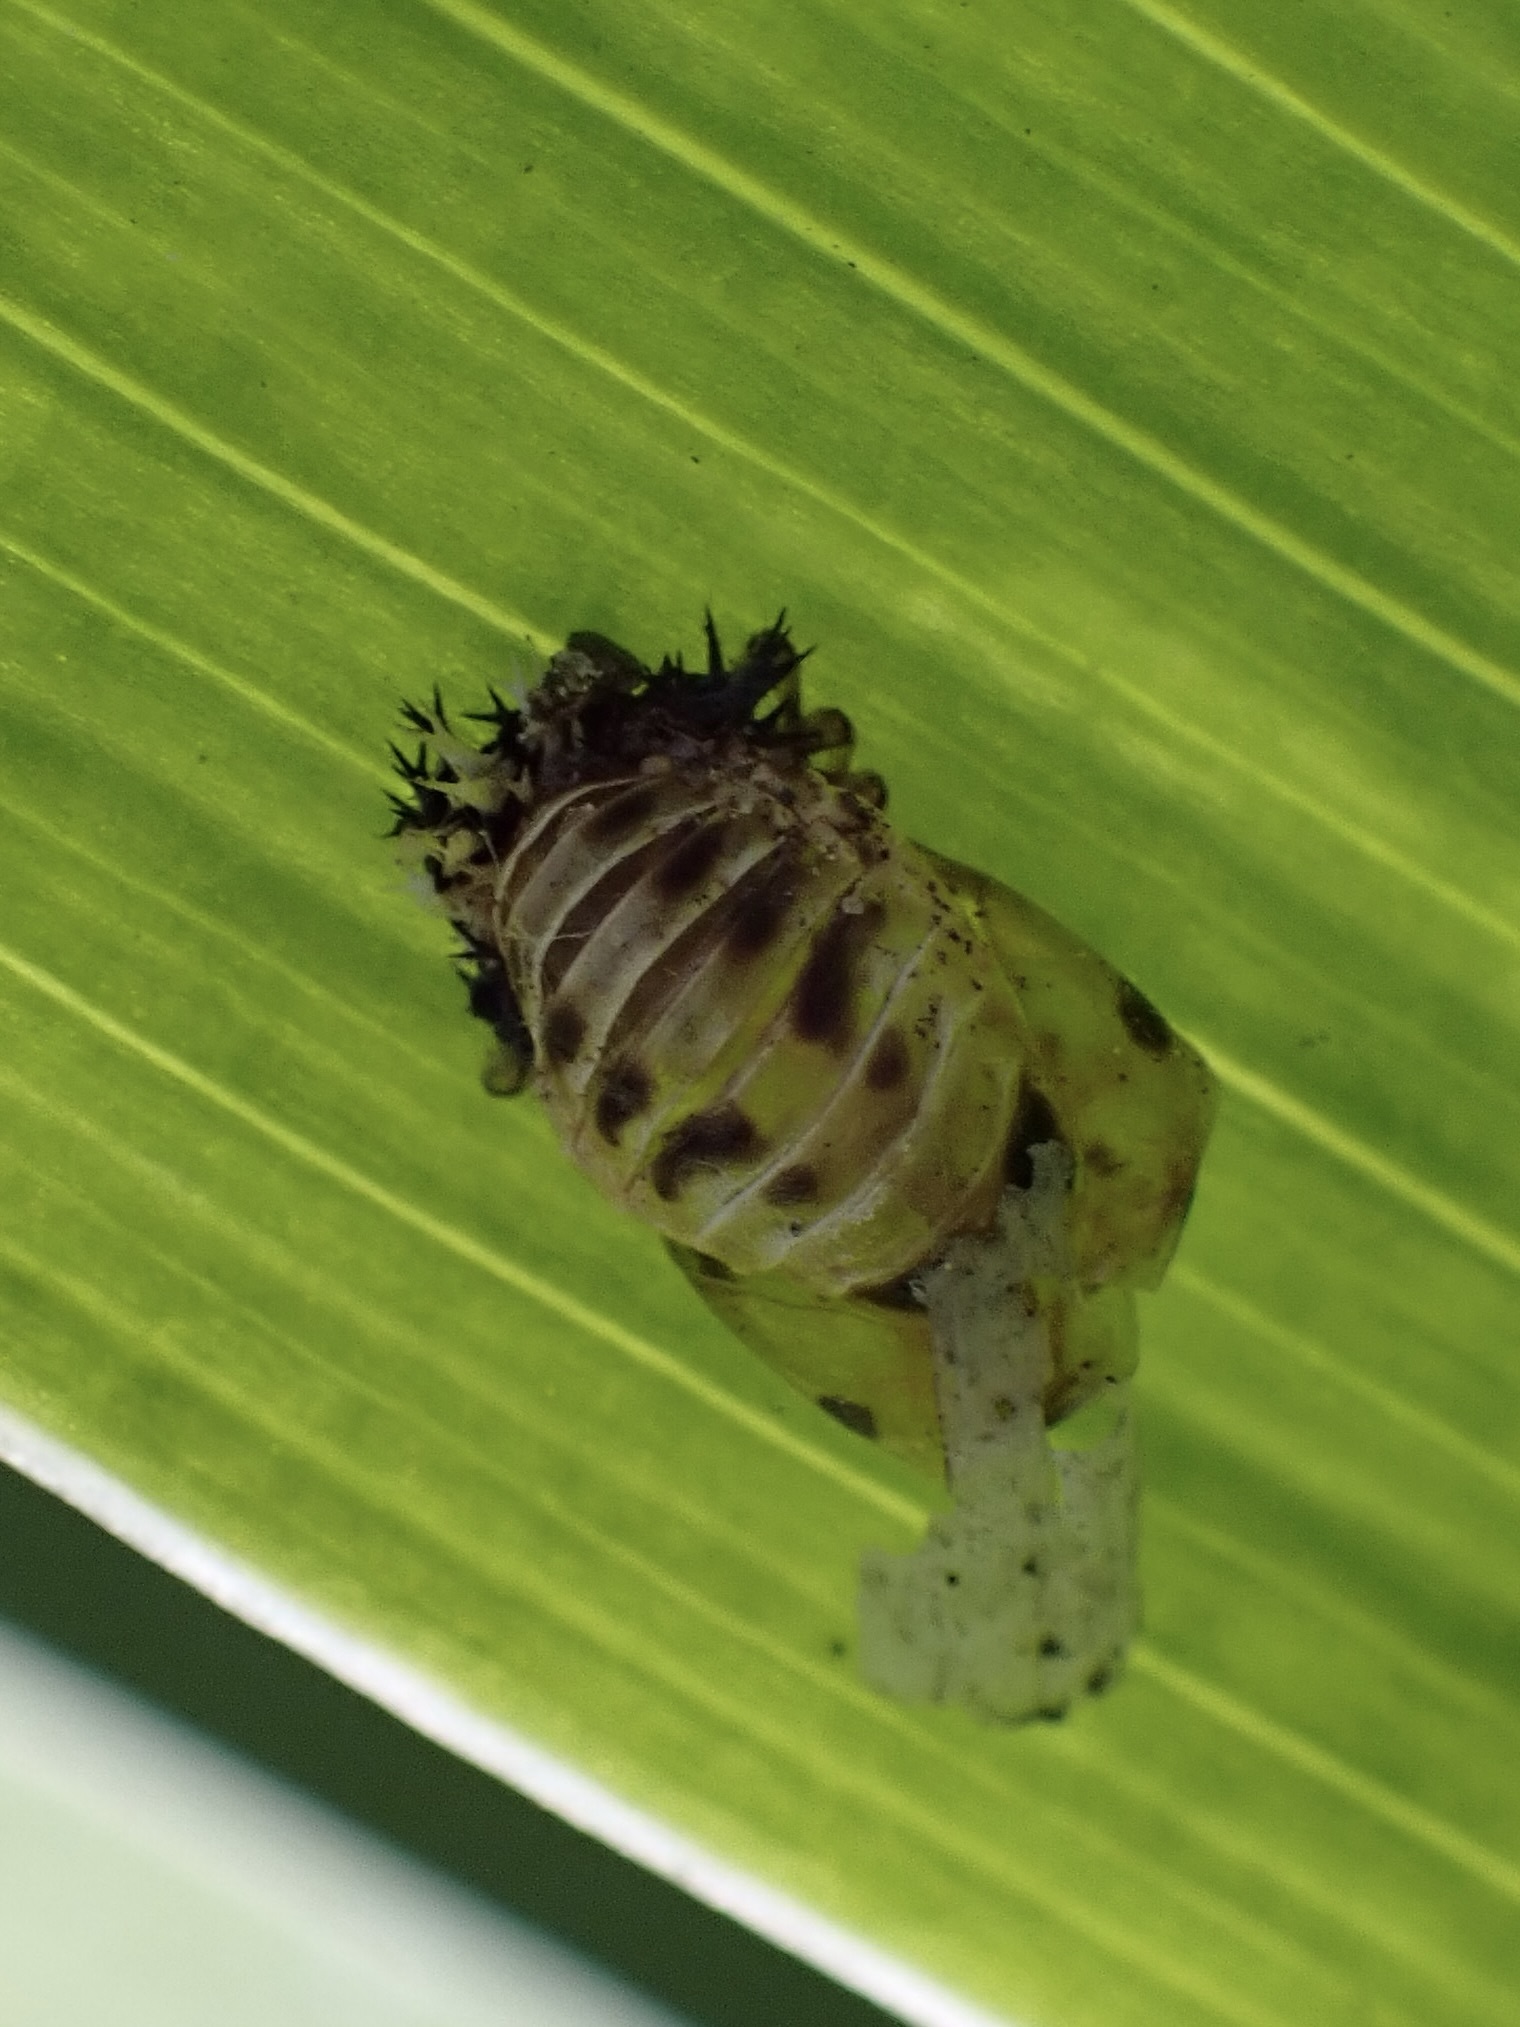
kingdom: Animalia
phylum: Arthropoda
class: Insecta
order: Coleoptera
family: Coccinellidae
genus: Harmonia
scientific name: Harmonia axyridis
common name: Harlequin ladybird
